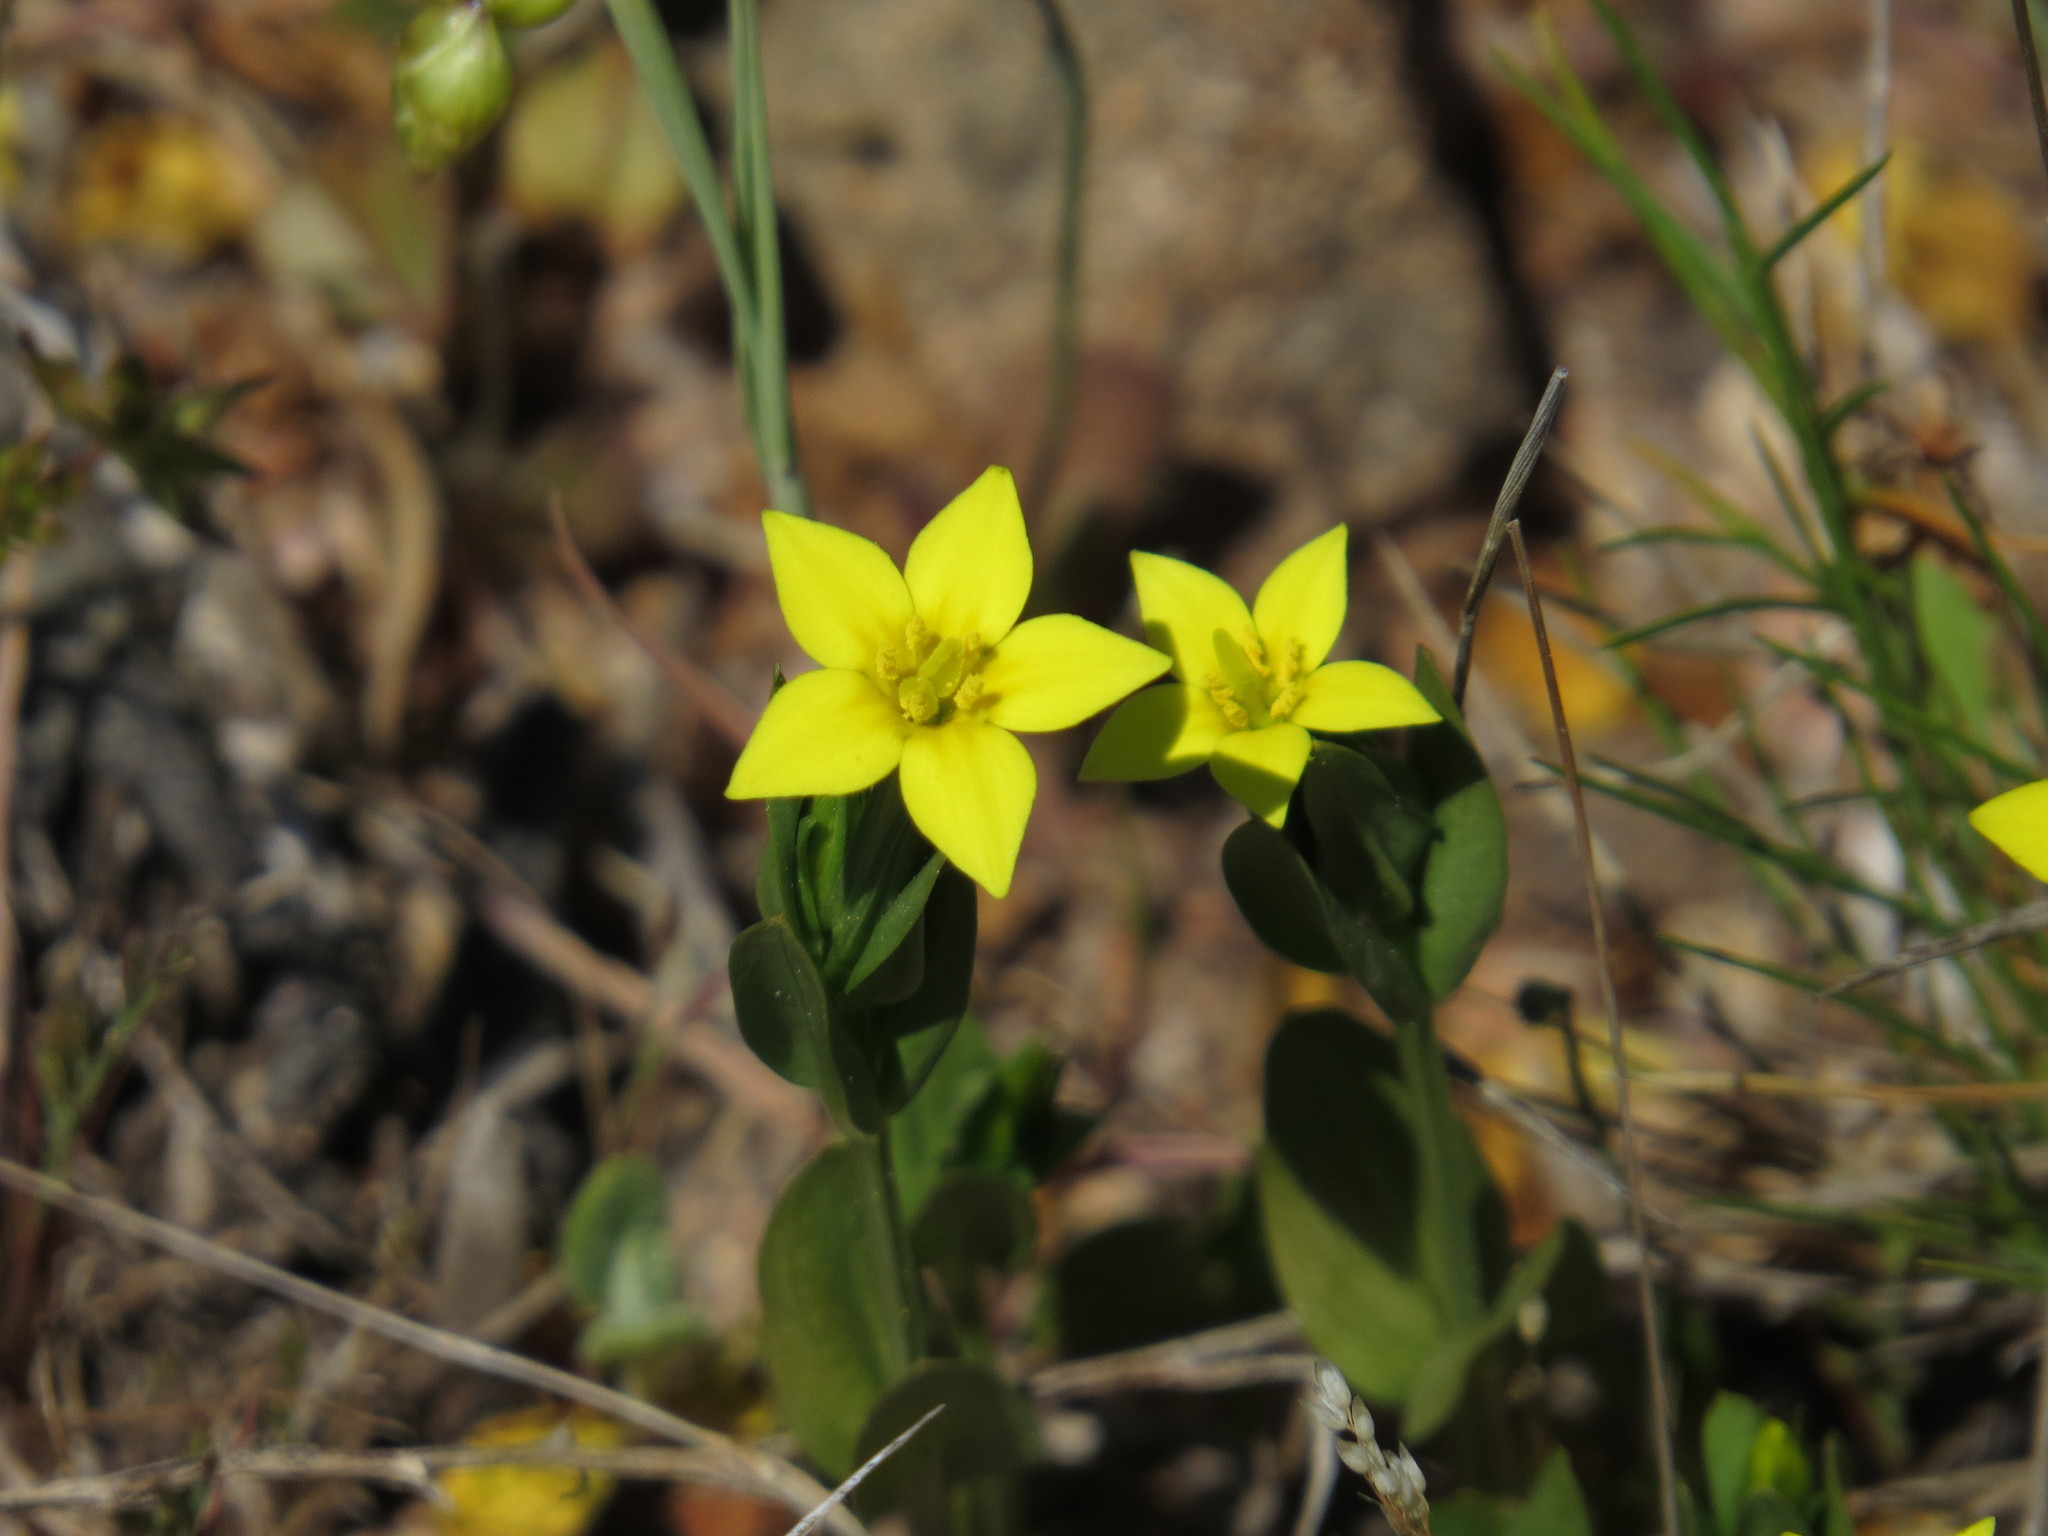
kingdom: Plantae
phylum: Tracheophyta
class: Magnoliopsida
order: Gentianales
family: Gentianaceae
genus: Centaurium
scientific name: Centaurium maritimum
